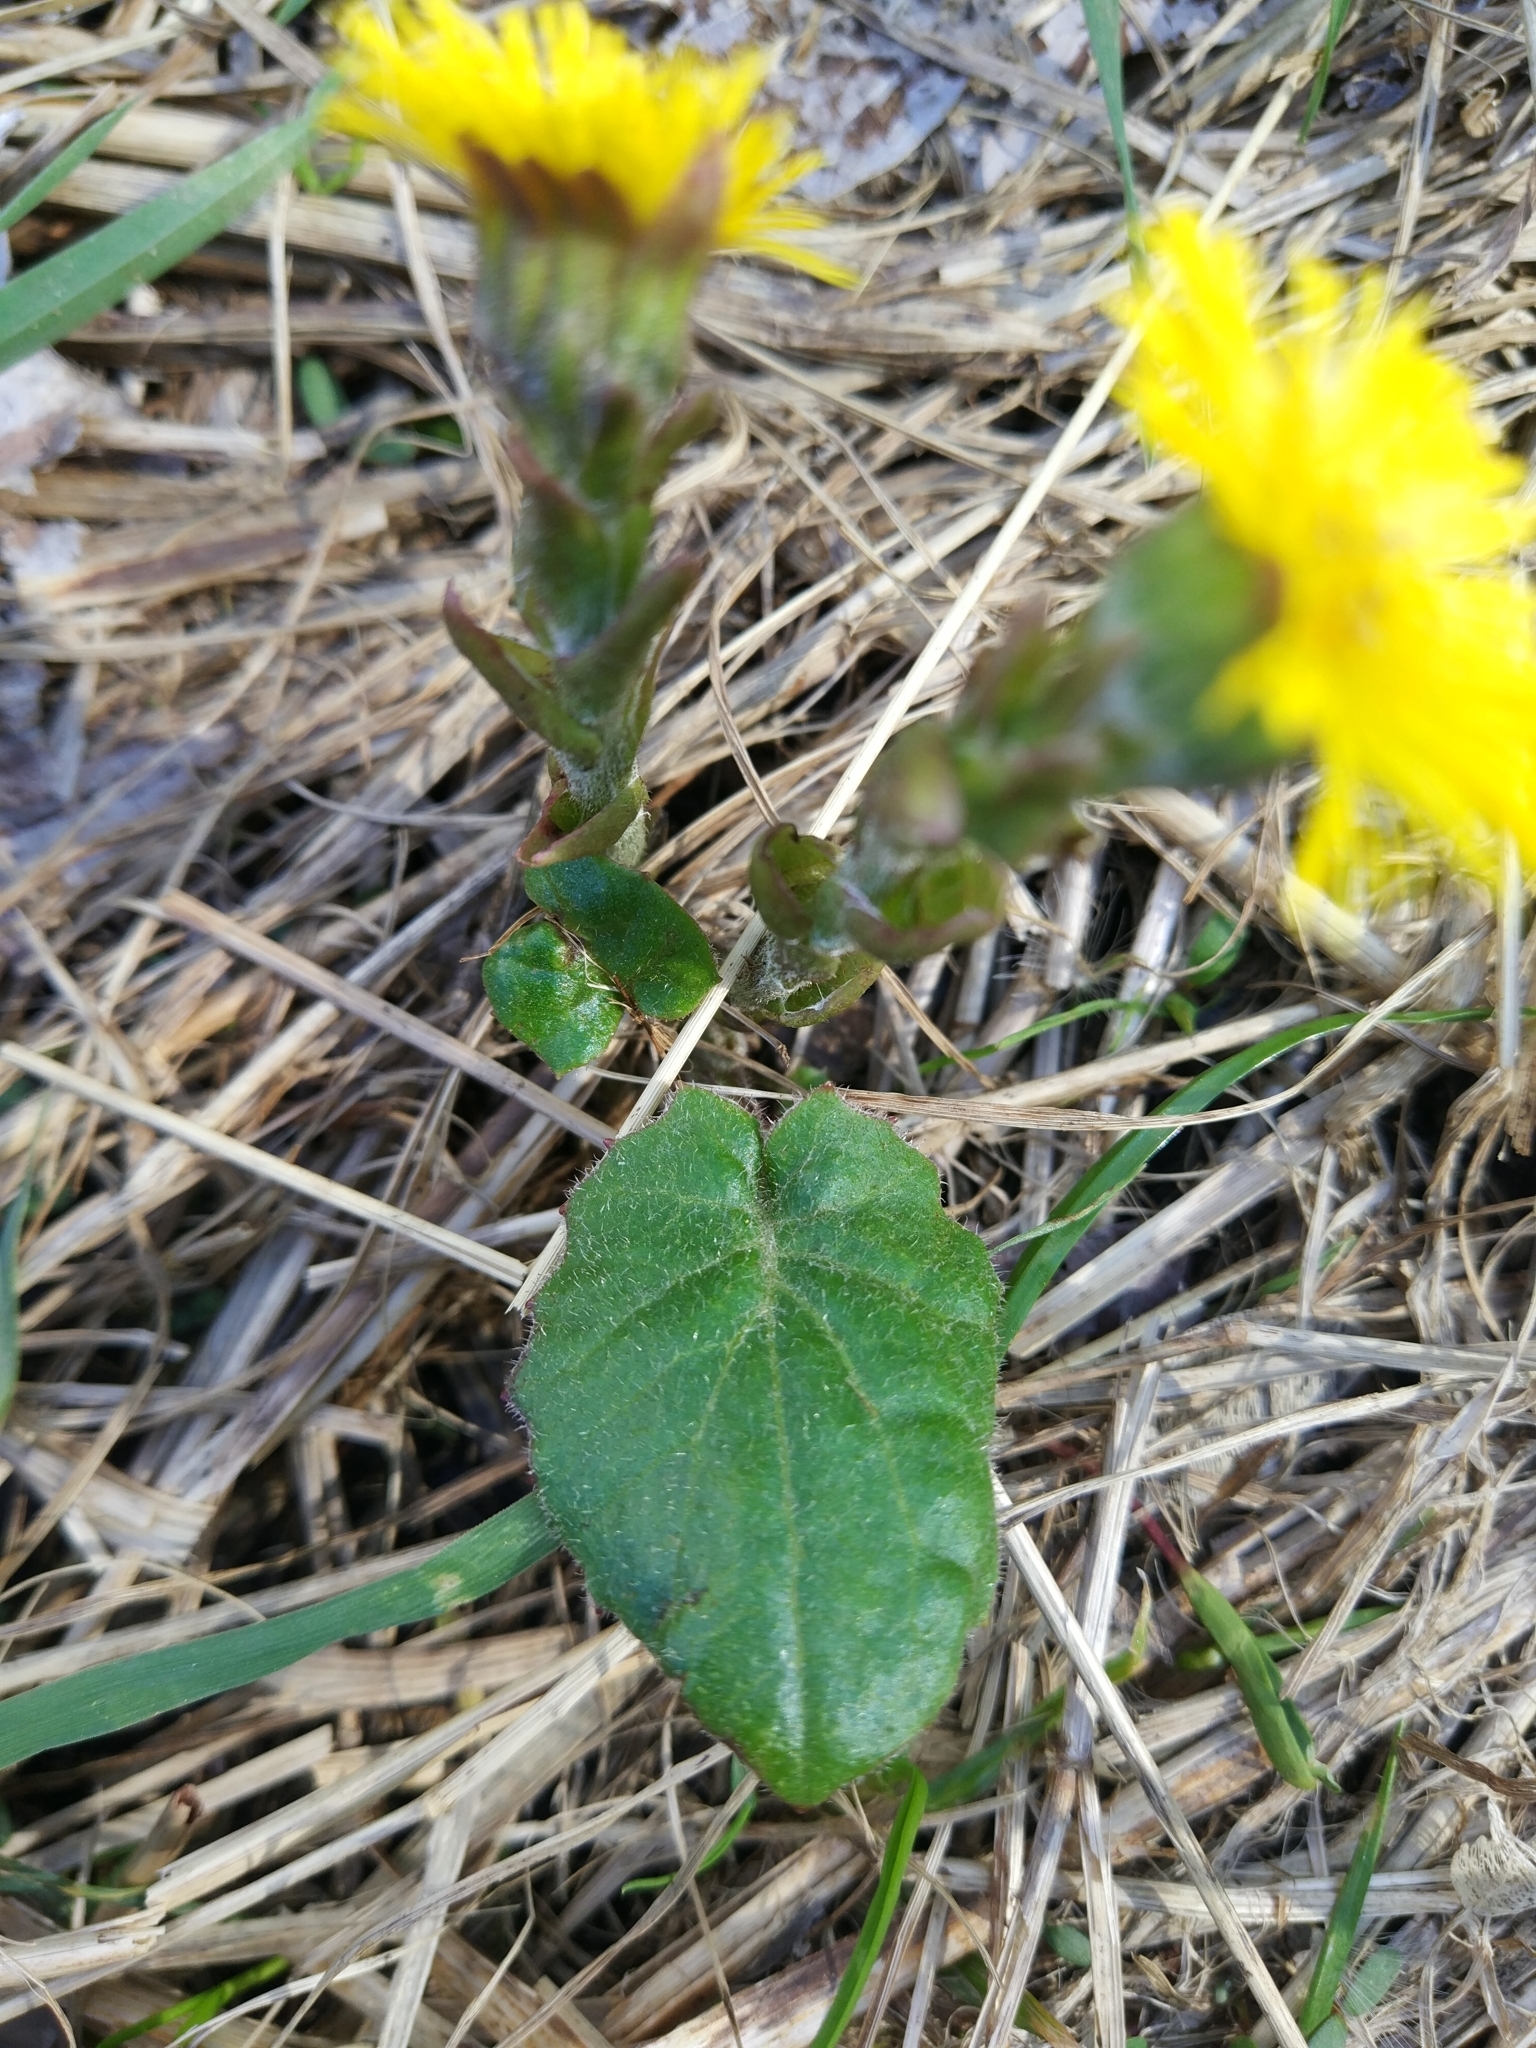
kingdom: Plantae
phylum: Tracheophyta
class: Magnoliopsida
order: Asterales
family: Asteraceae
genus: Tussilago
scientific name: Tussilago farfara
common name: Coltsfoot
